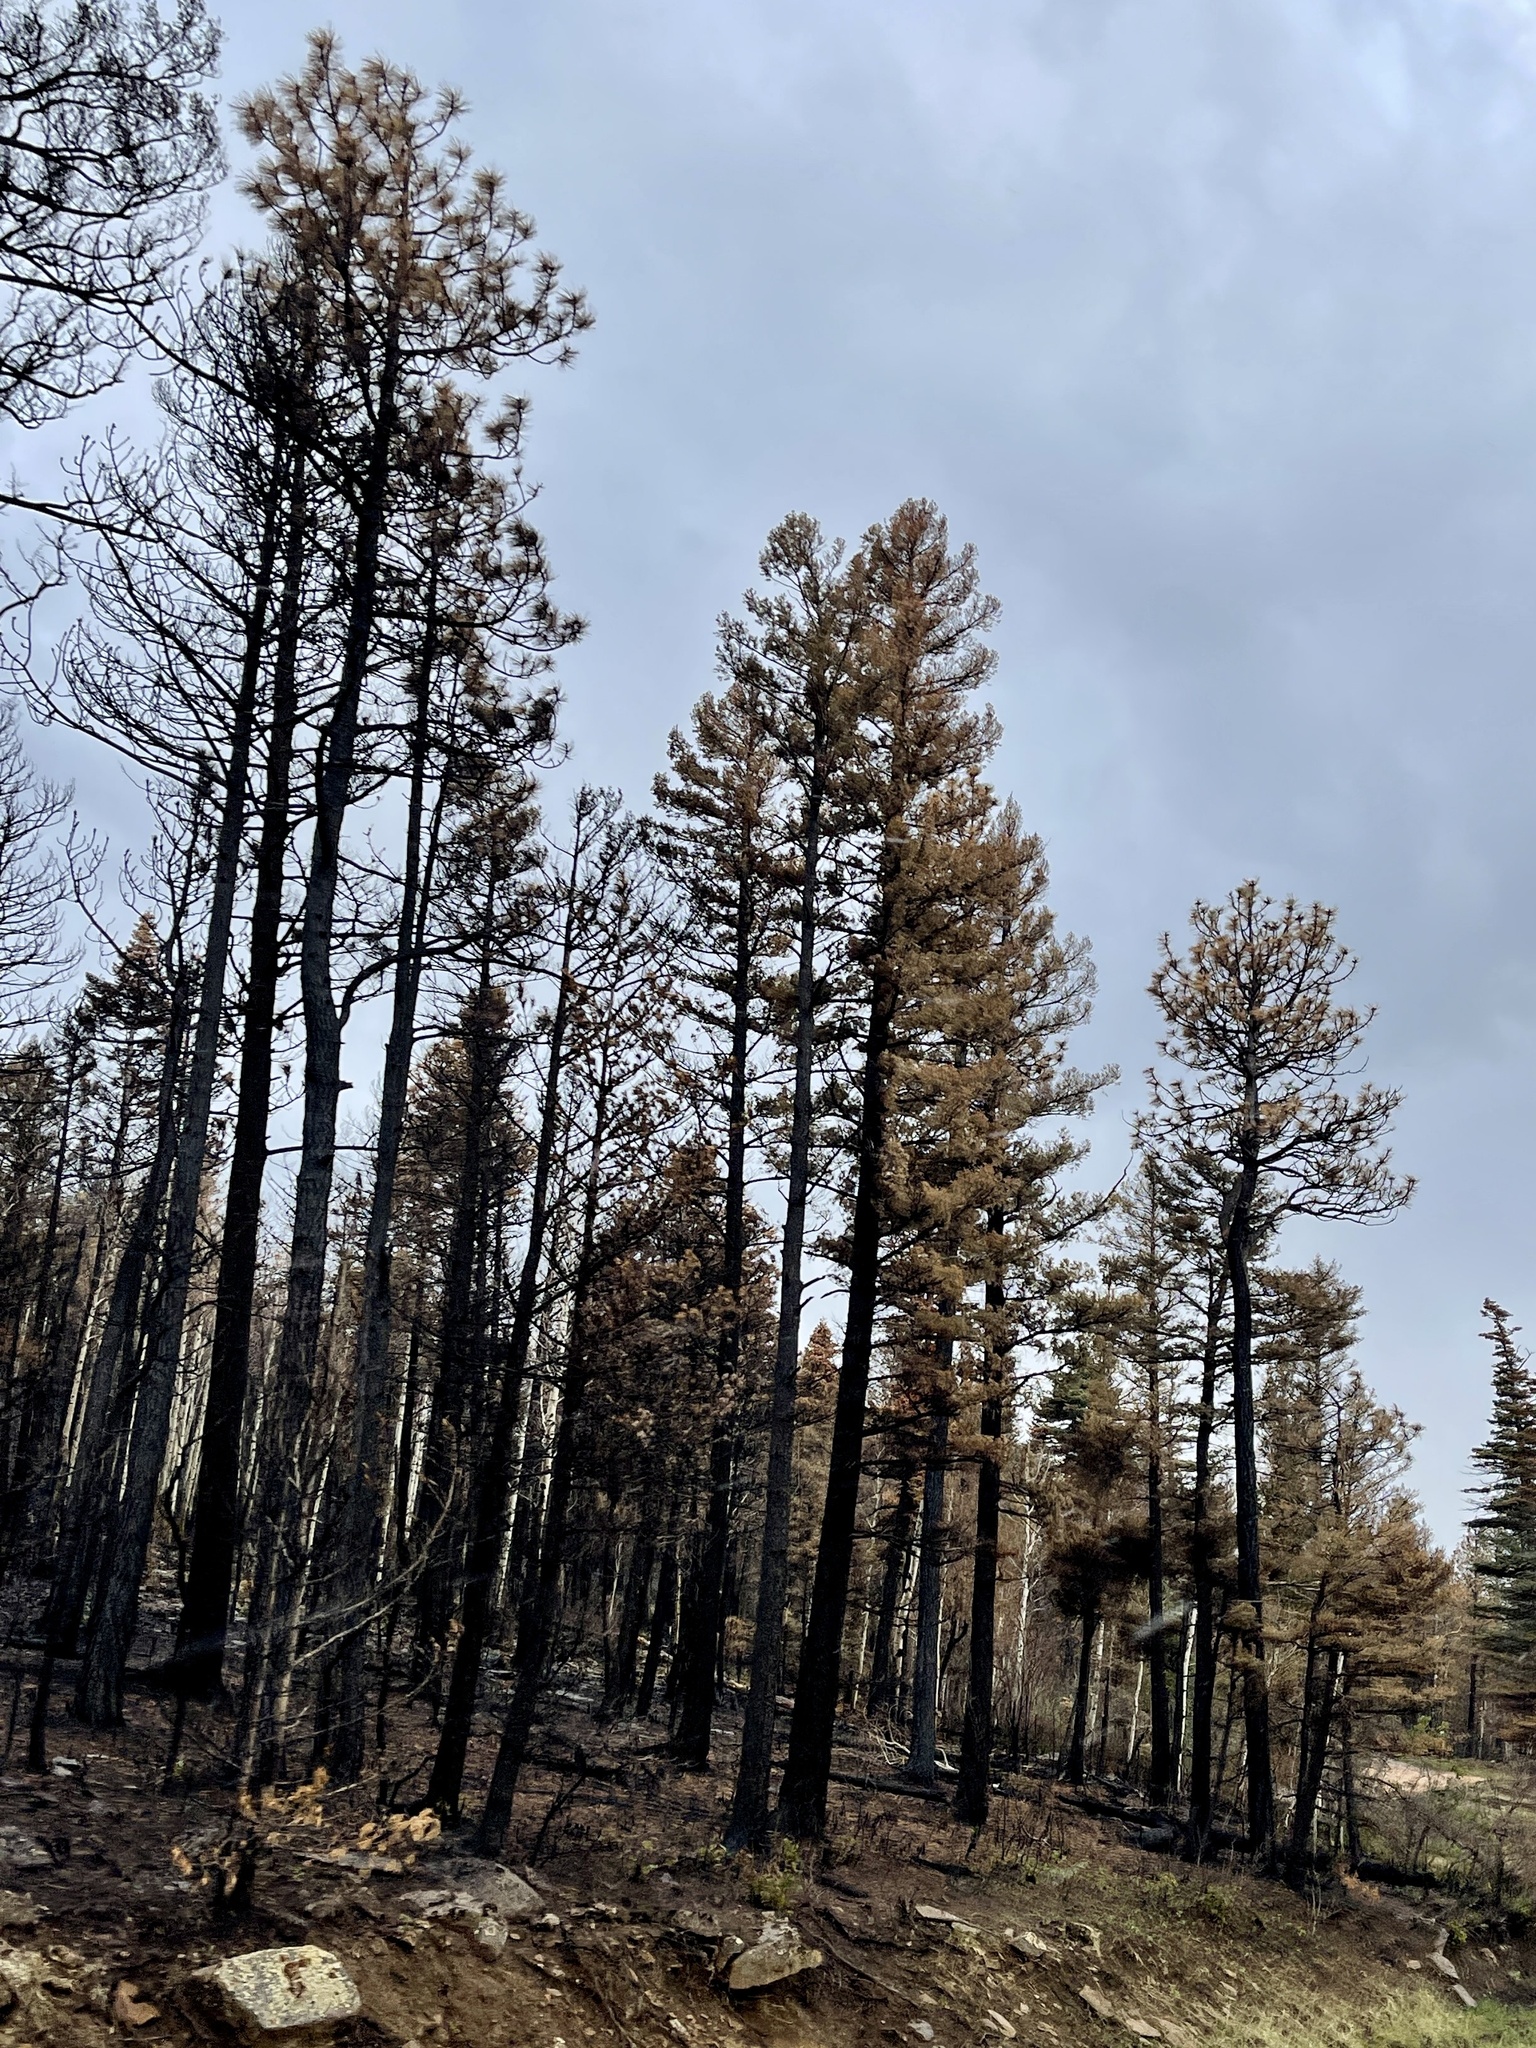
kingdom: Plantae
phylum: Tracheophyta
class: Pinopsida
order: Pinales
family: Pinaceae
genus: Pinus
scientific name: Pinus ponderosa
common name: Western yellow-pine
